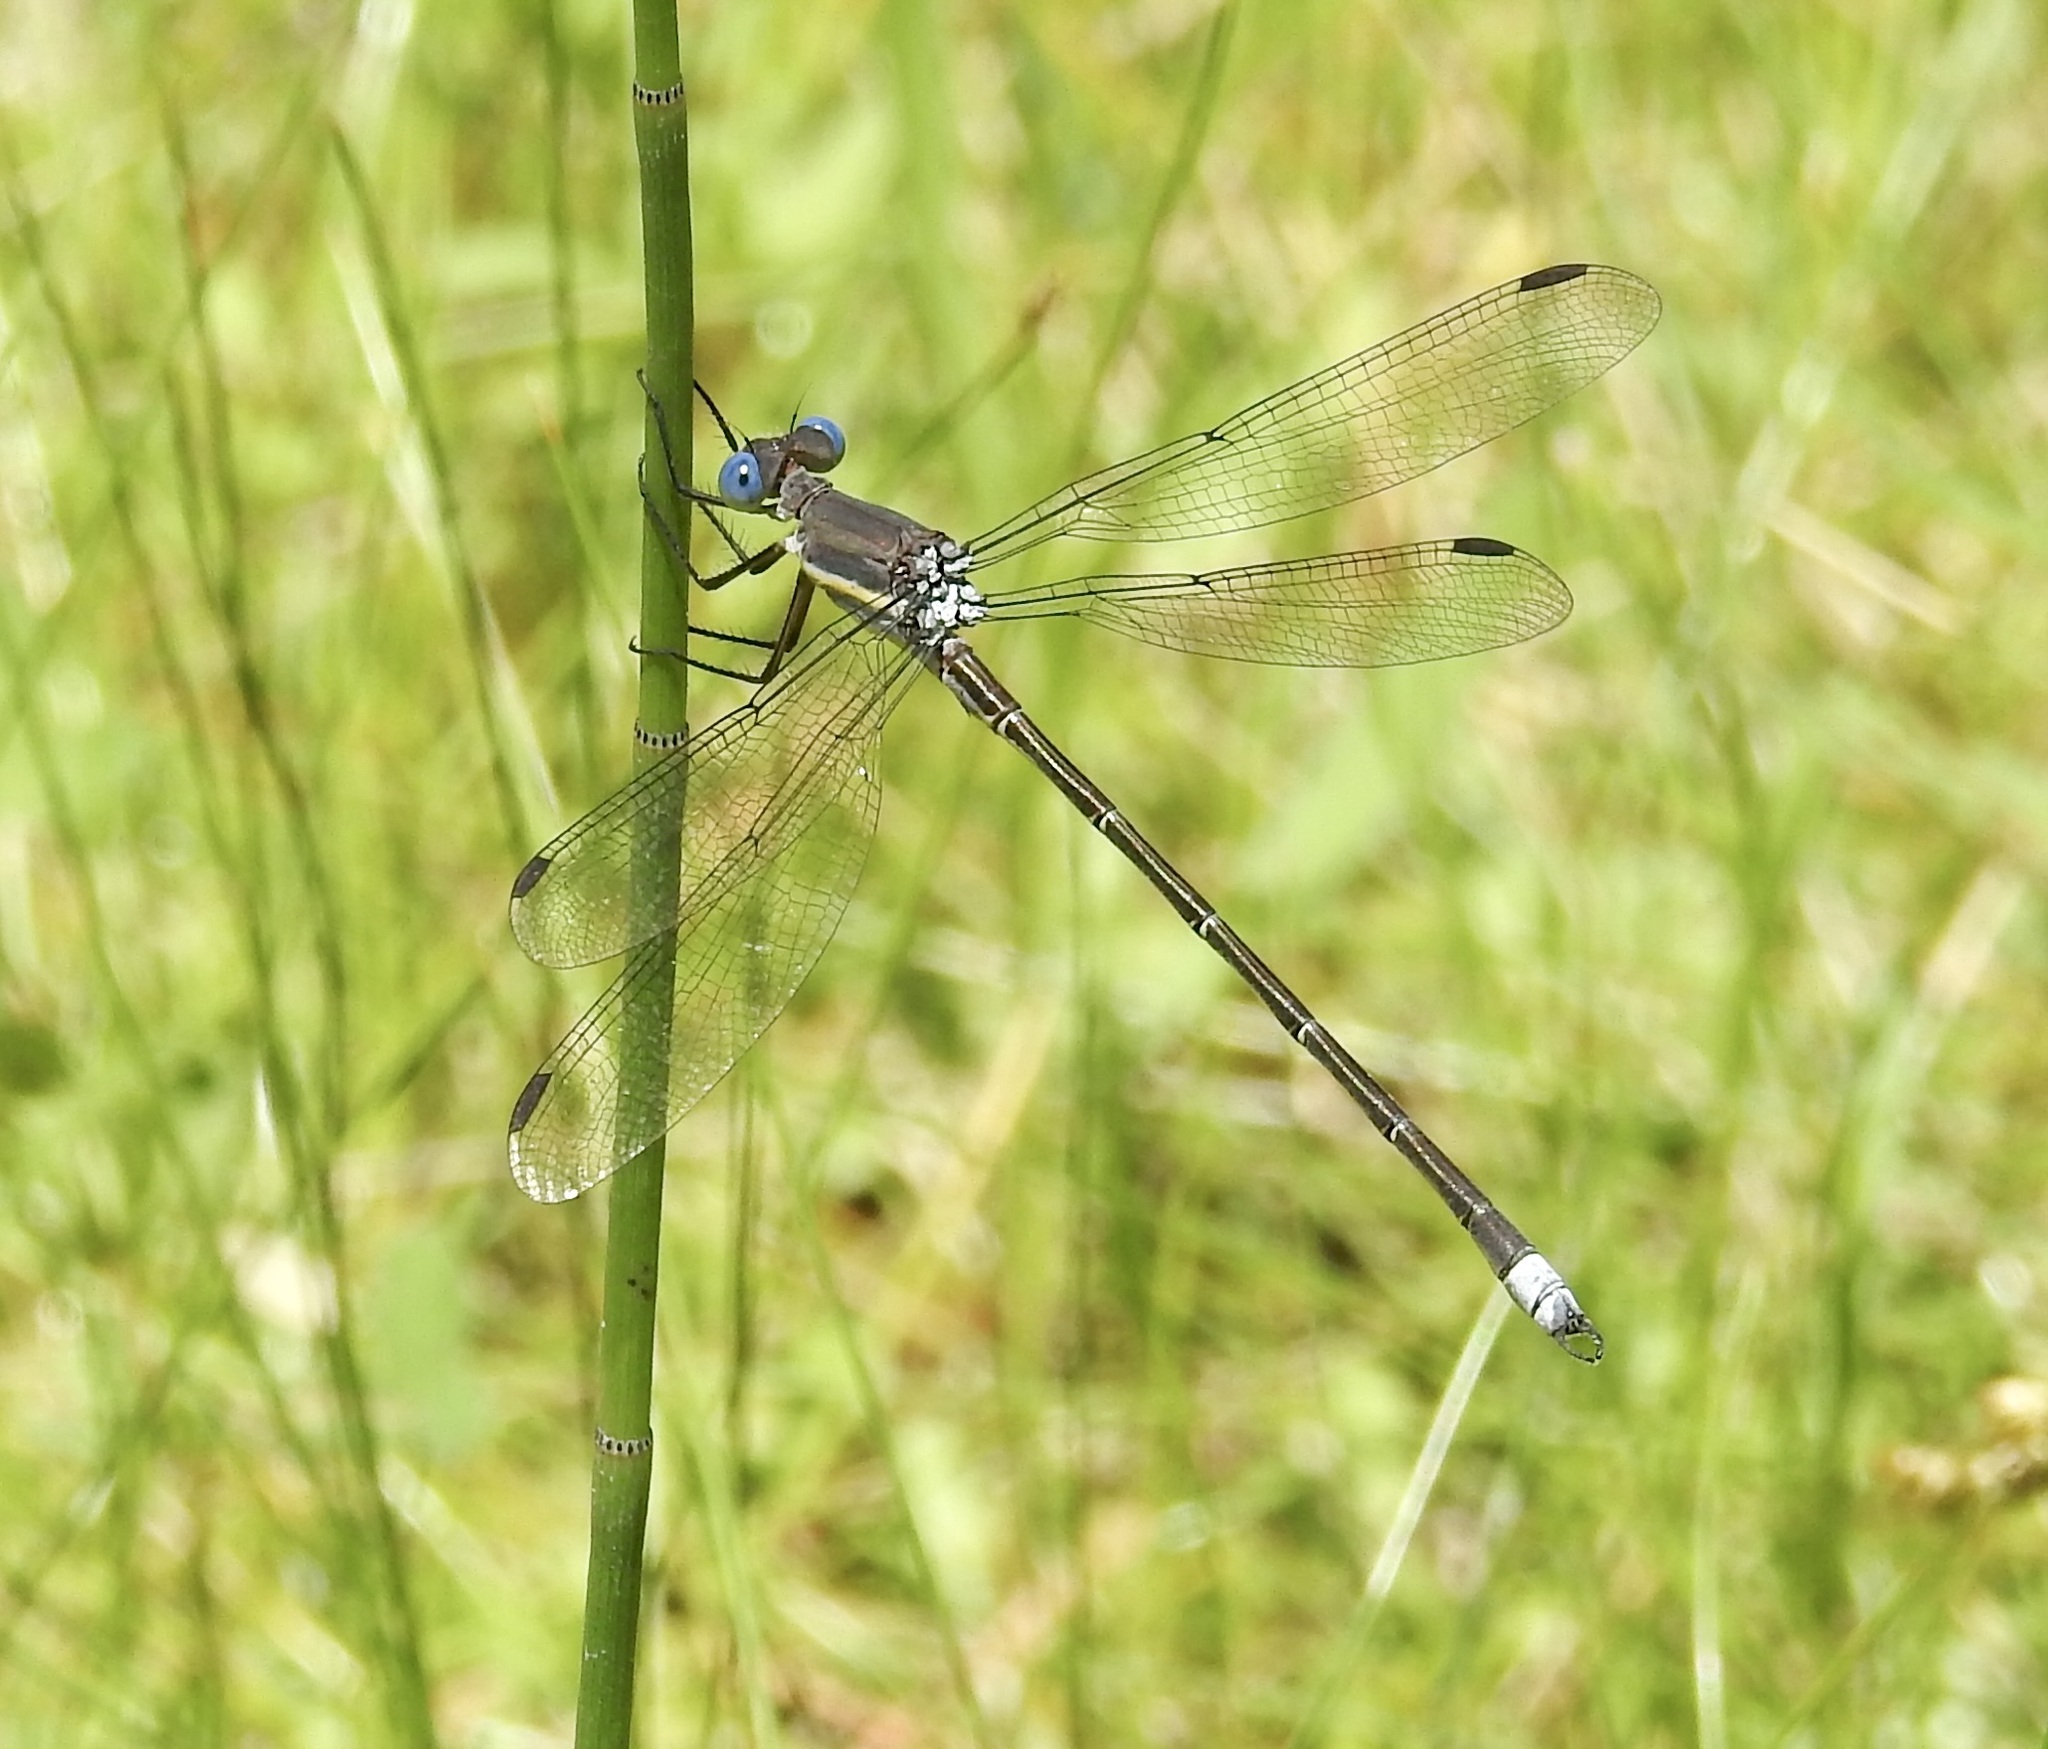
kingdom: Animalia
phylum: Arthropoda
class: Insecta
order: Odonata
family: Lestidae
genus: Archilestes
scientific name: Archilestes grandis
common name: Great spreadwing
